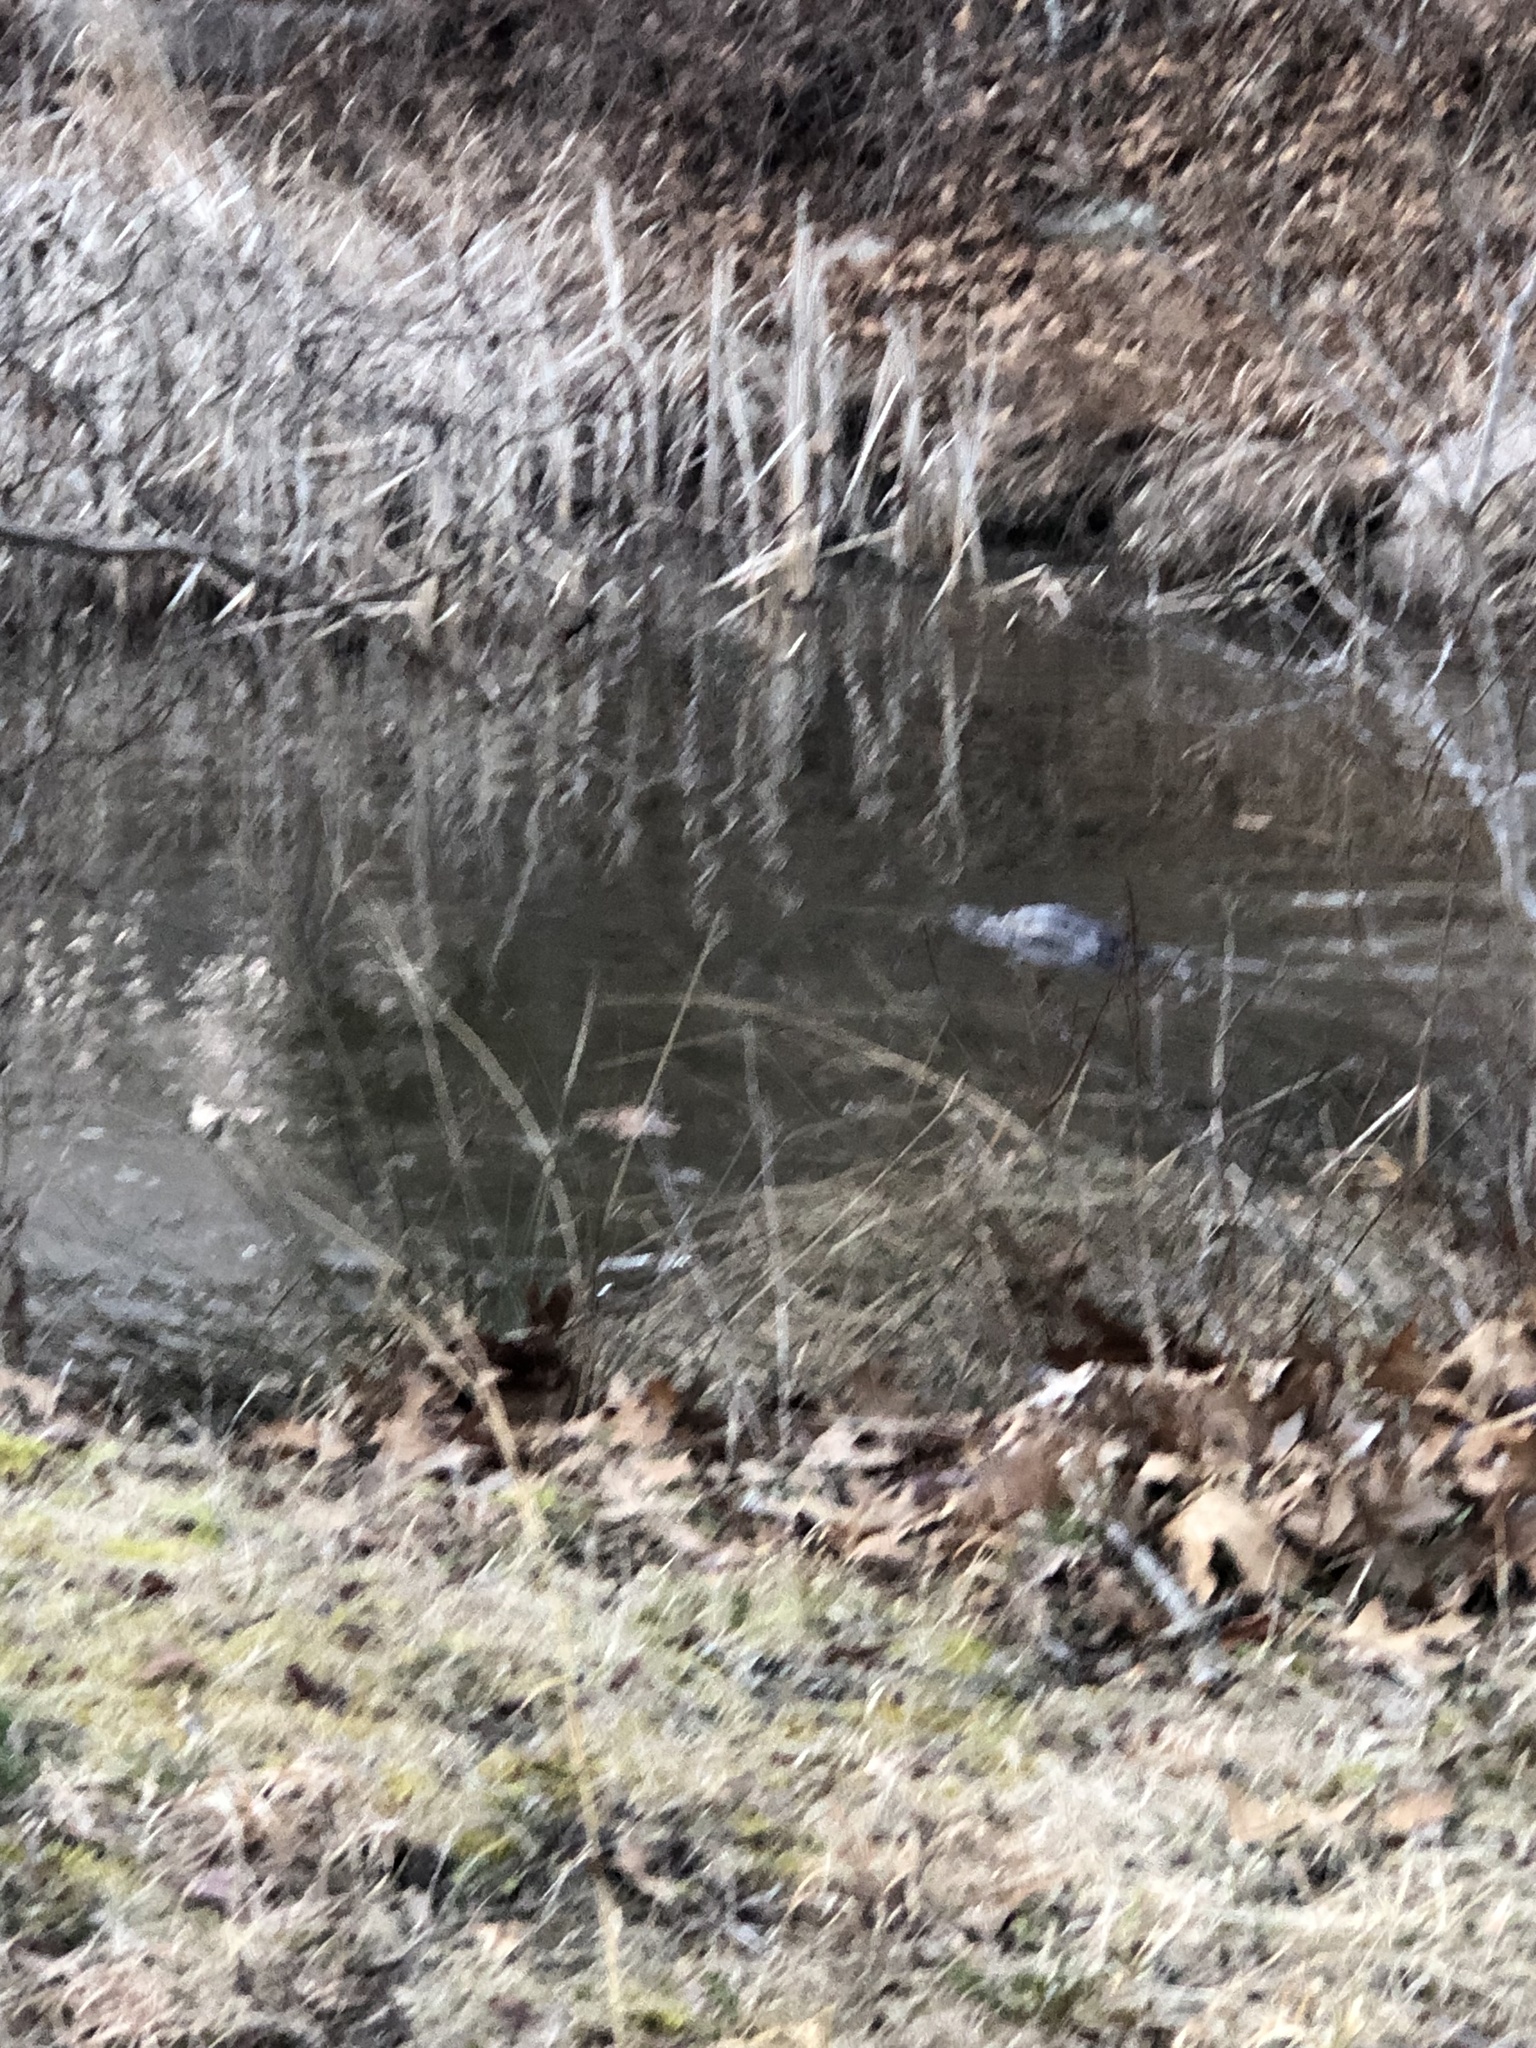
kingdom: Animalia
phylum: Chordata
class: Mammalia
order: Carnivora
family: Mustelidae
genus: Lontra
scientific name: Lontra canadensis
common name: North american river otter
